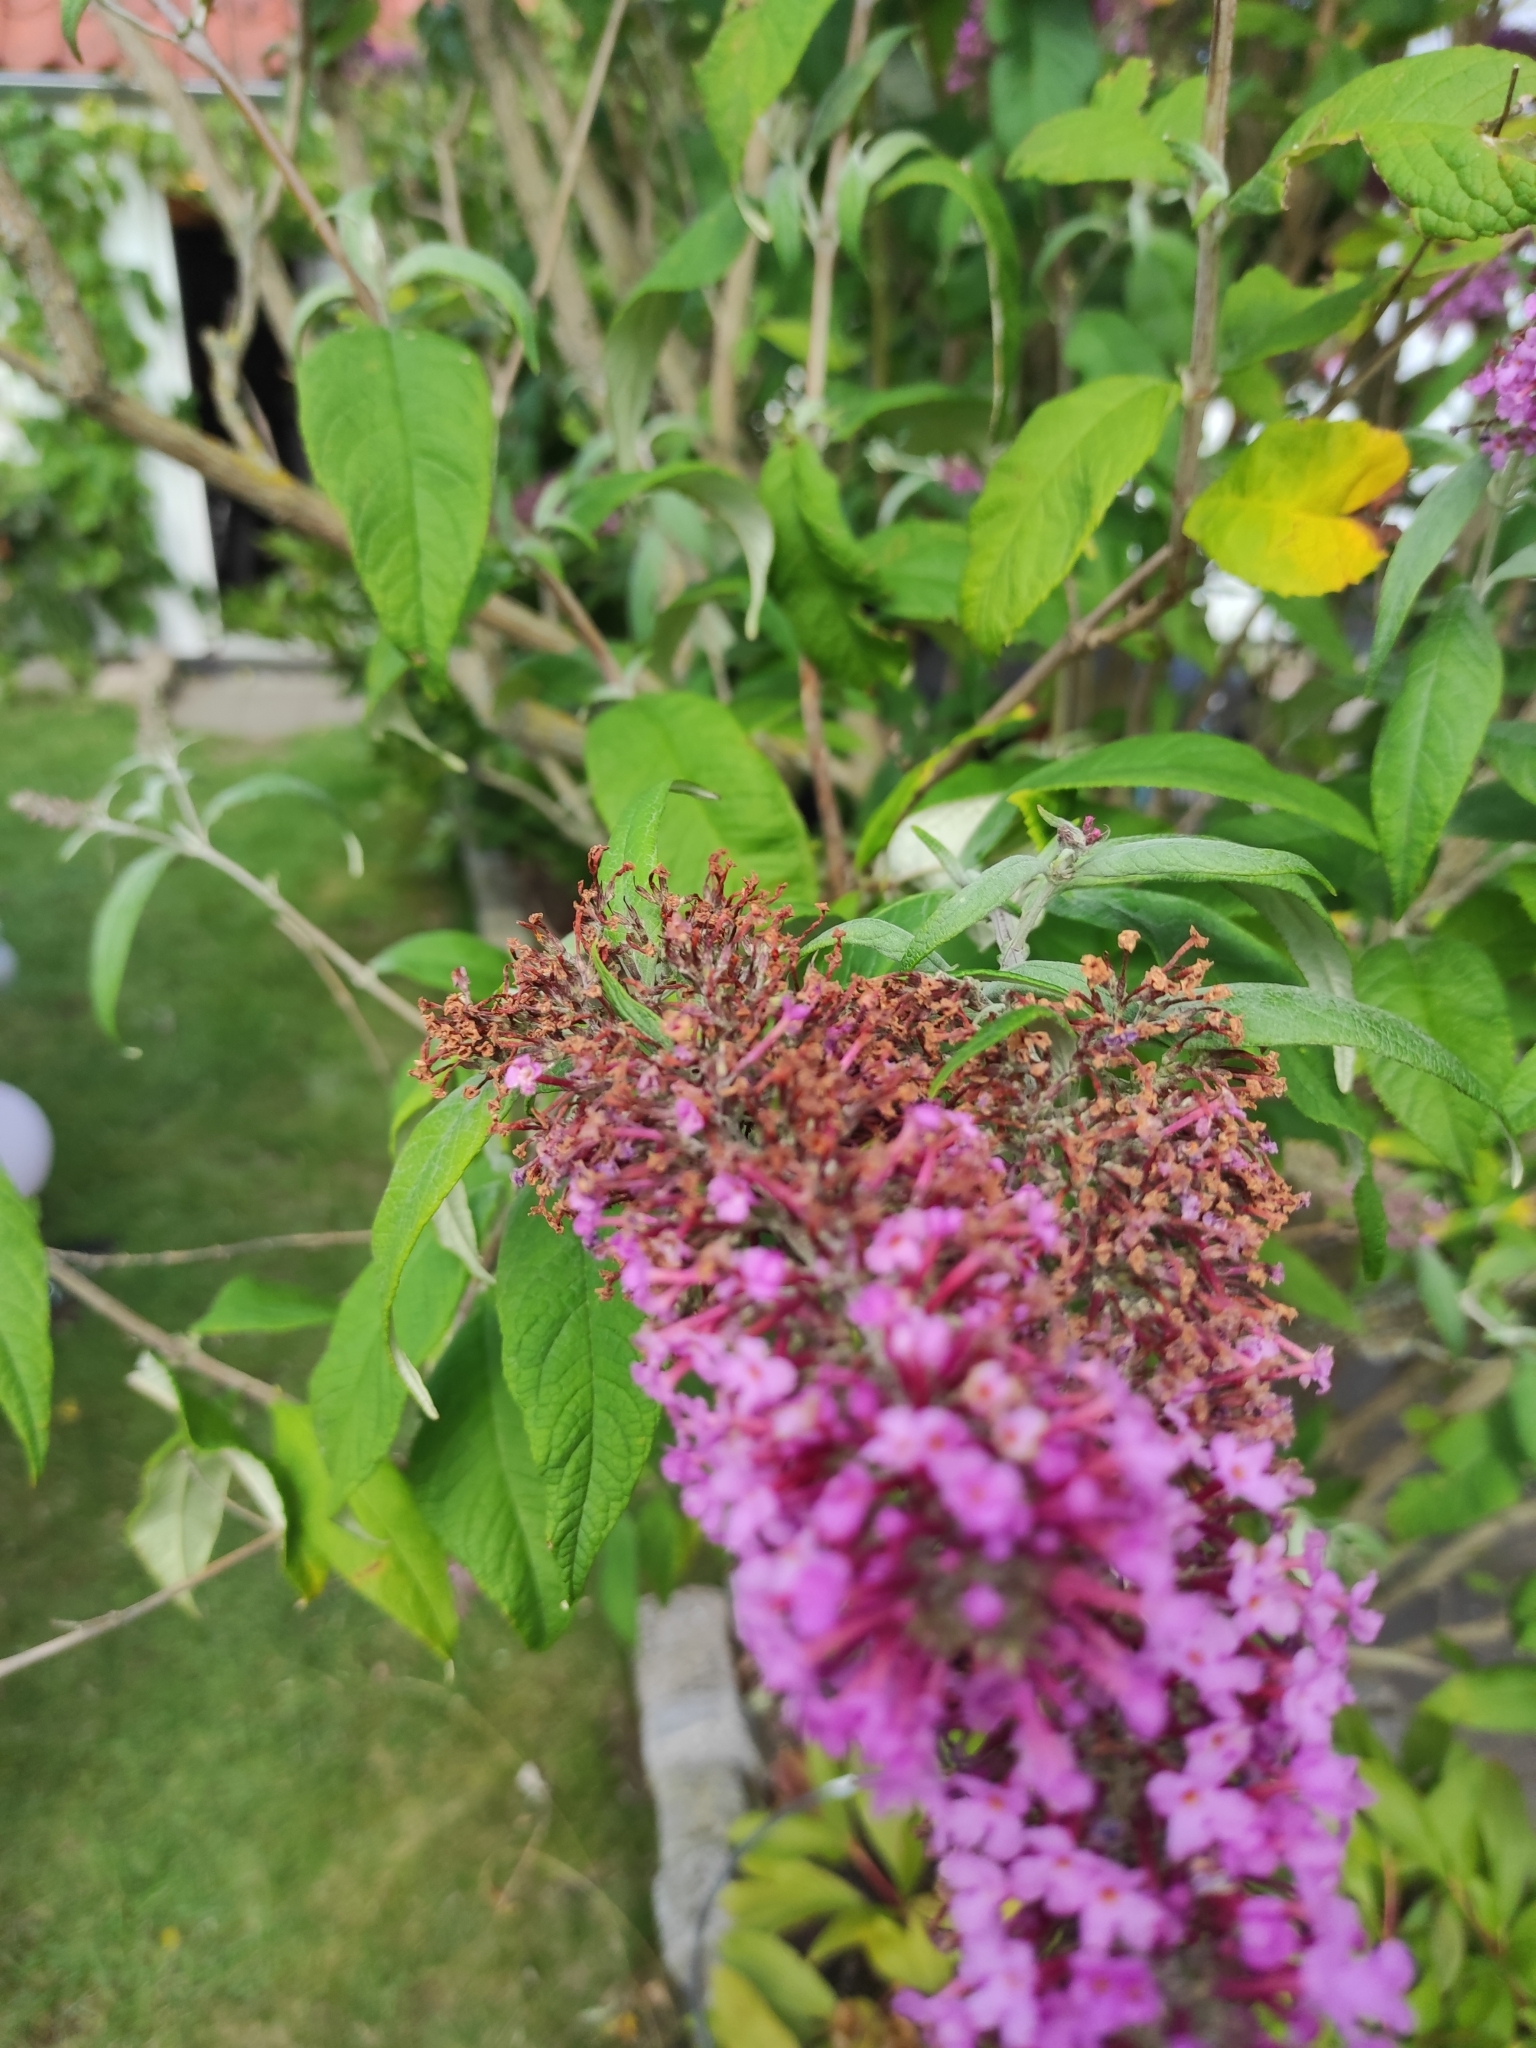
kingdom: Plantae
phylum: Tracheophyta
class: Magnoliopsida
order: Lamiales
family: Scrophulariaceae
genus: Buddleja
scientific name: Buddleja davidii
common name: Butterfly-bush
